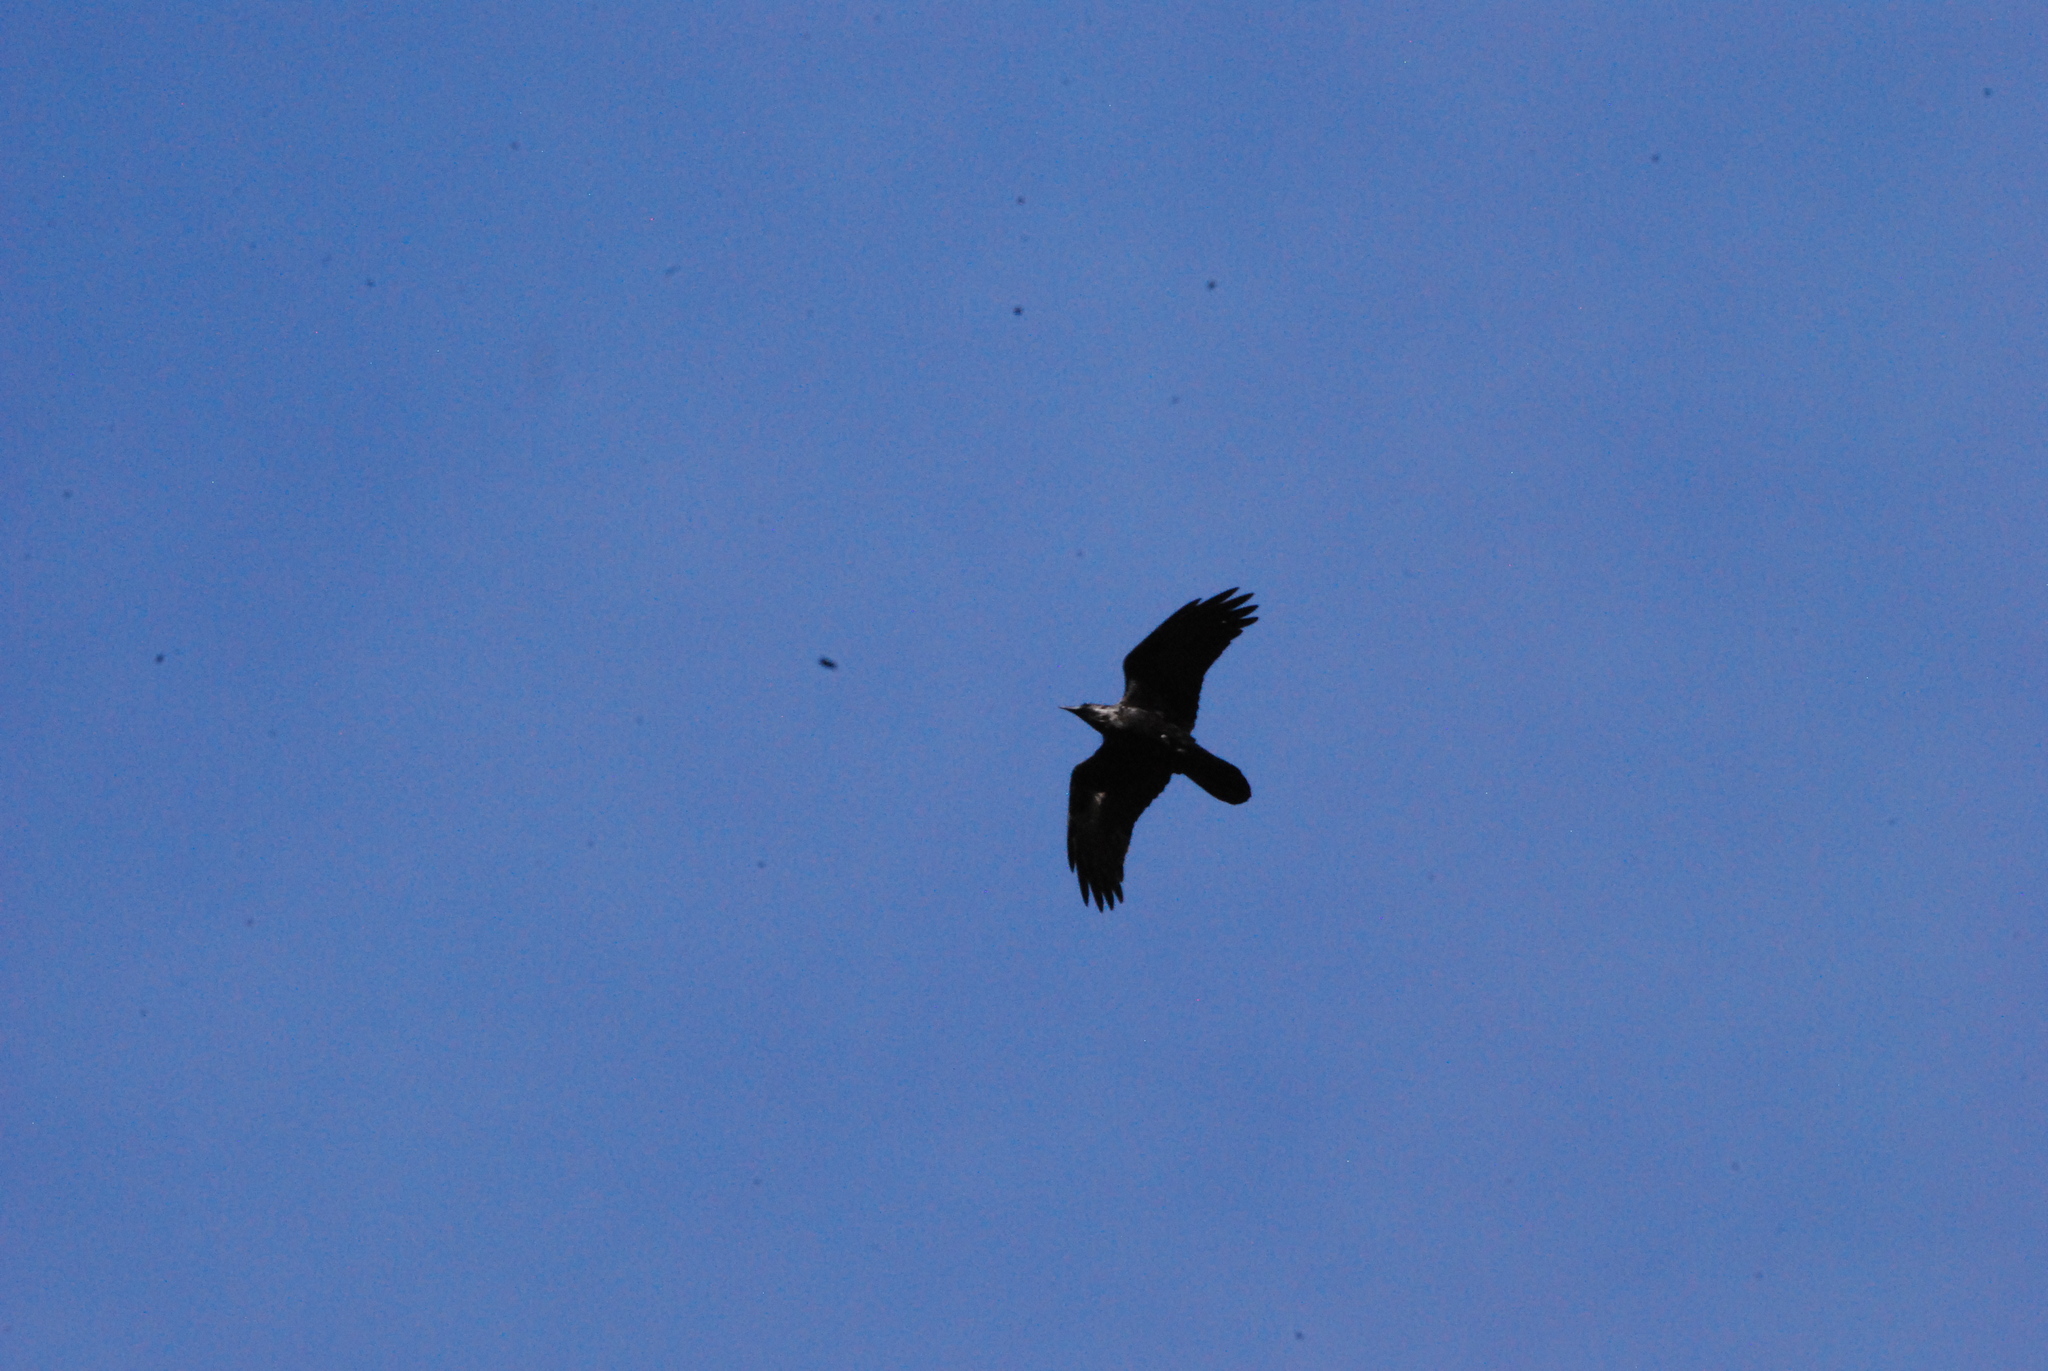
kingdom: Animalia
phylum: Chordata
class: Aves
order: Passeriformes
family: Corvidae
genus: Corvus
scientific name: Corvus
